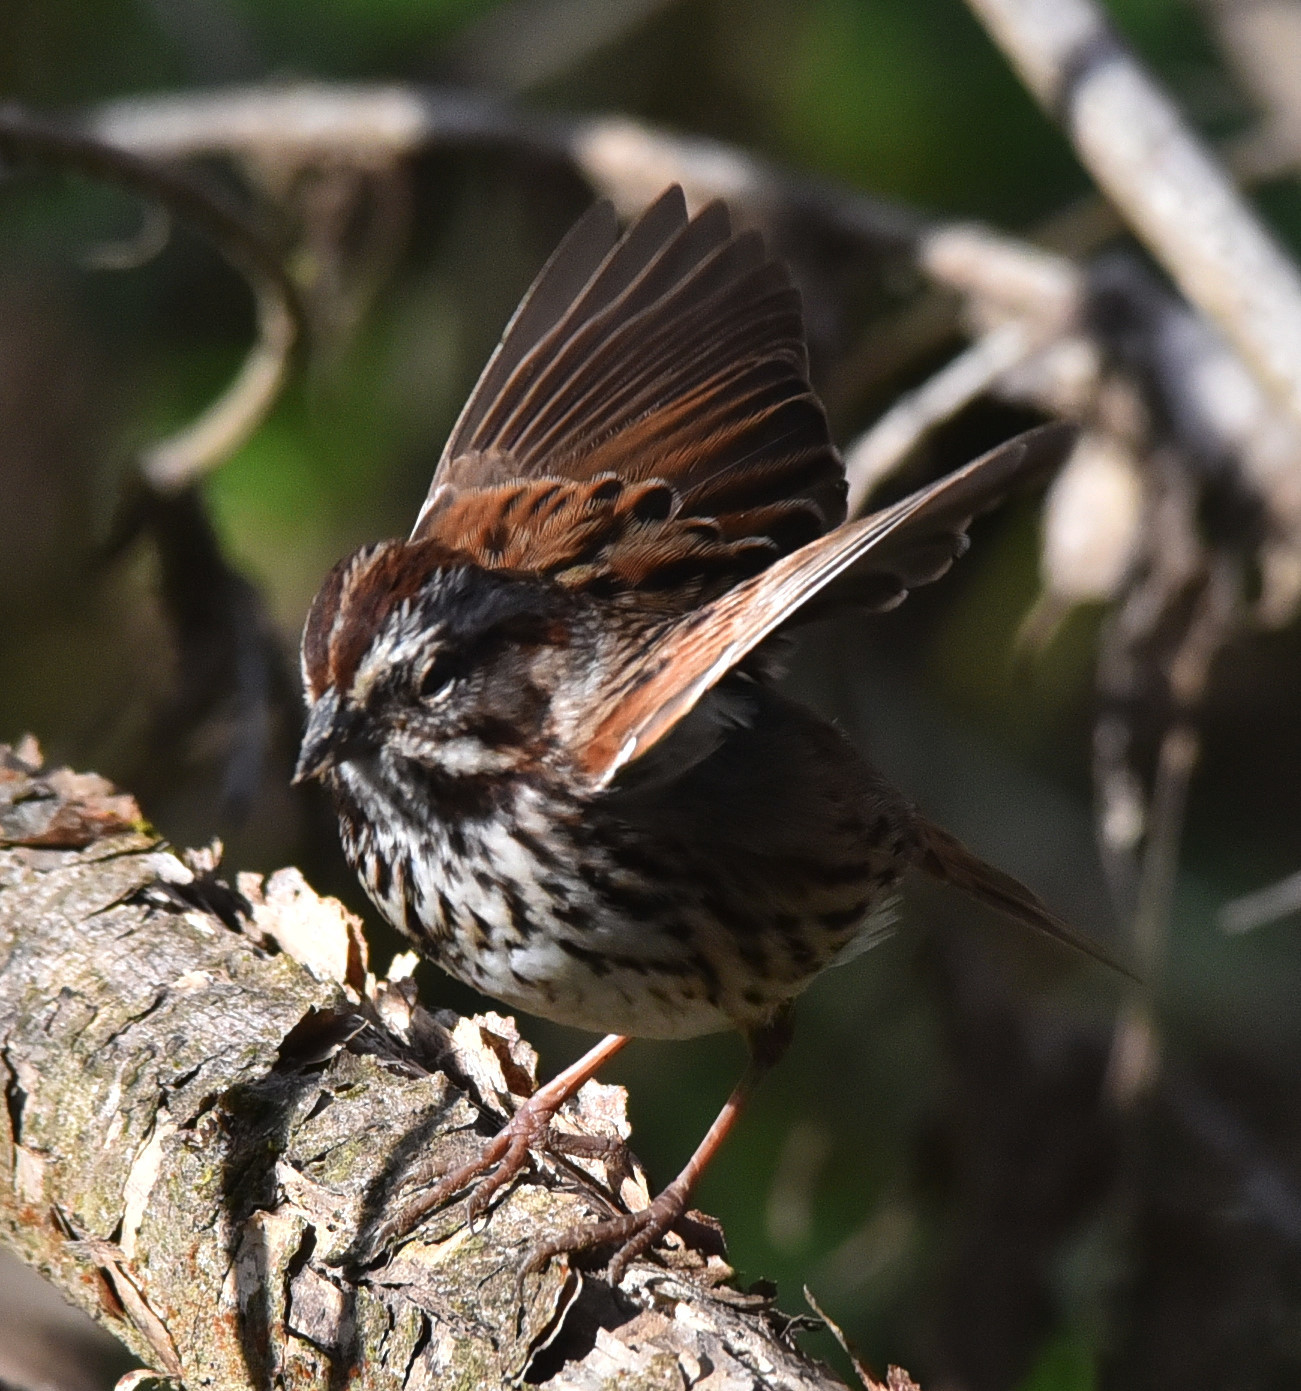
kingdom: Animalia
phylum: Chordata
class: Aves
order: Passeriformes
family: Passerellidae
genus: Melospiza
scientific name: Melospiza melodia
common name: Song sparrow
